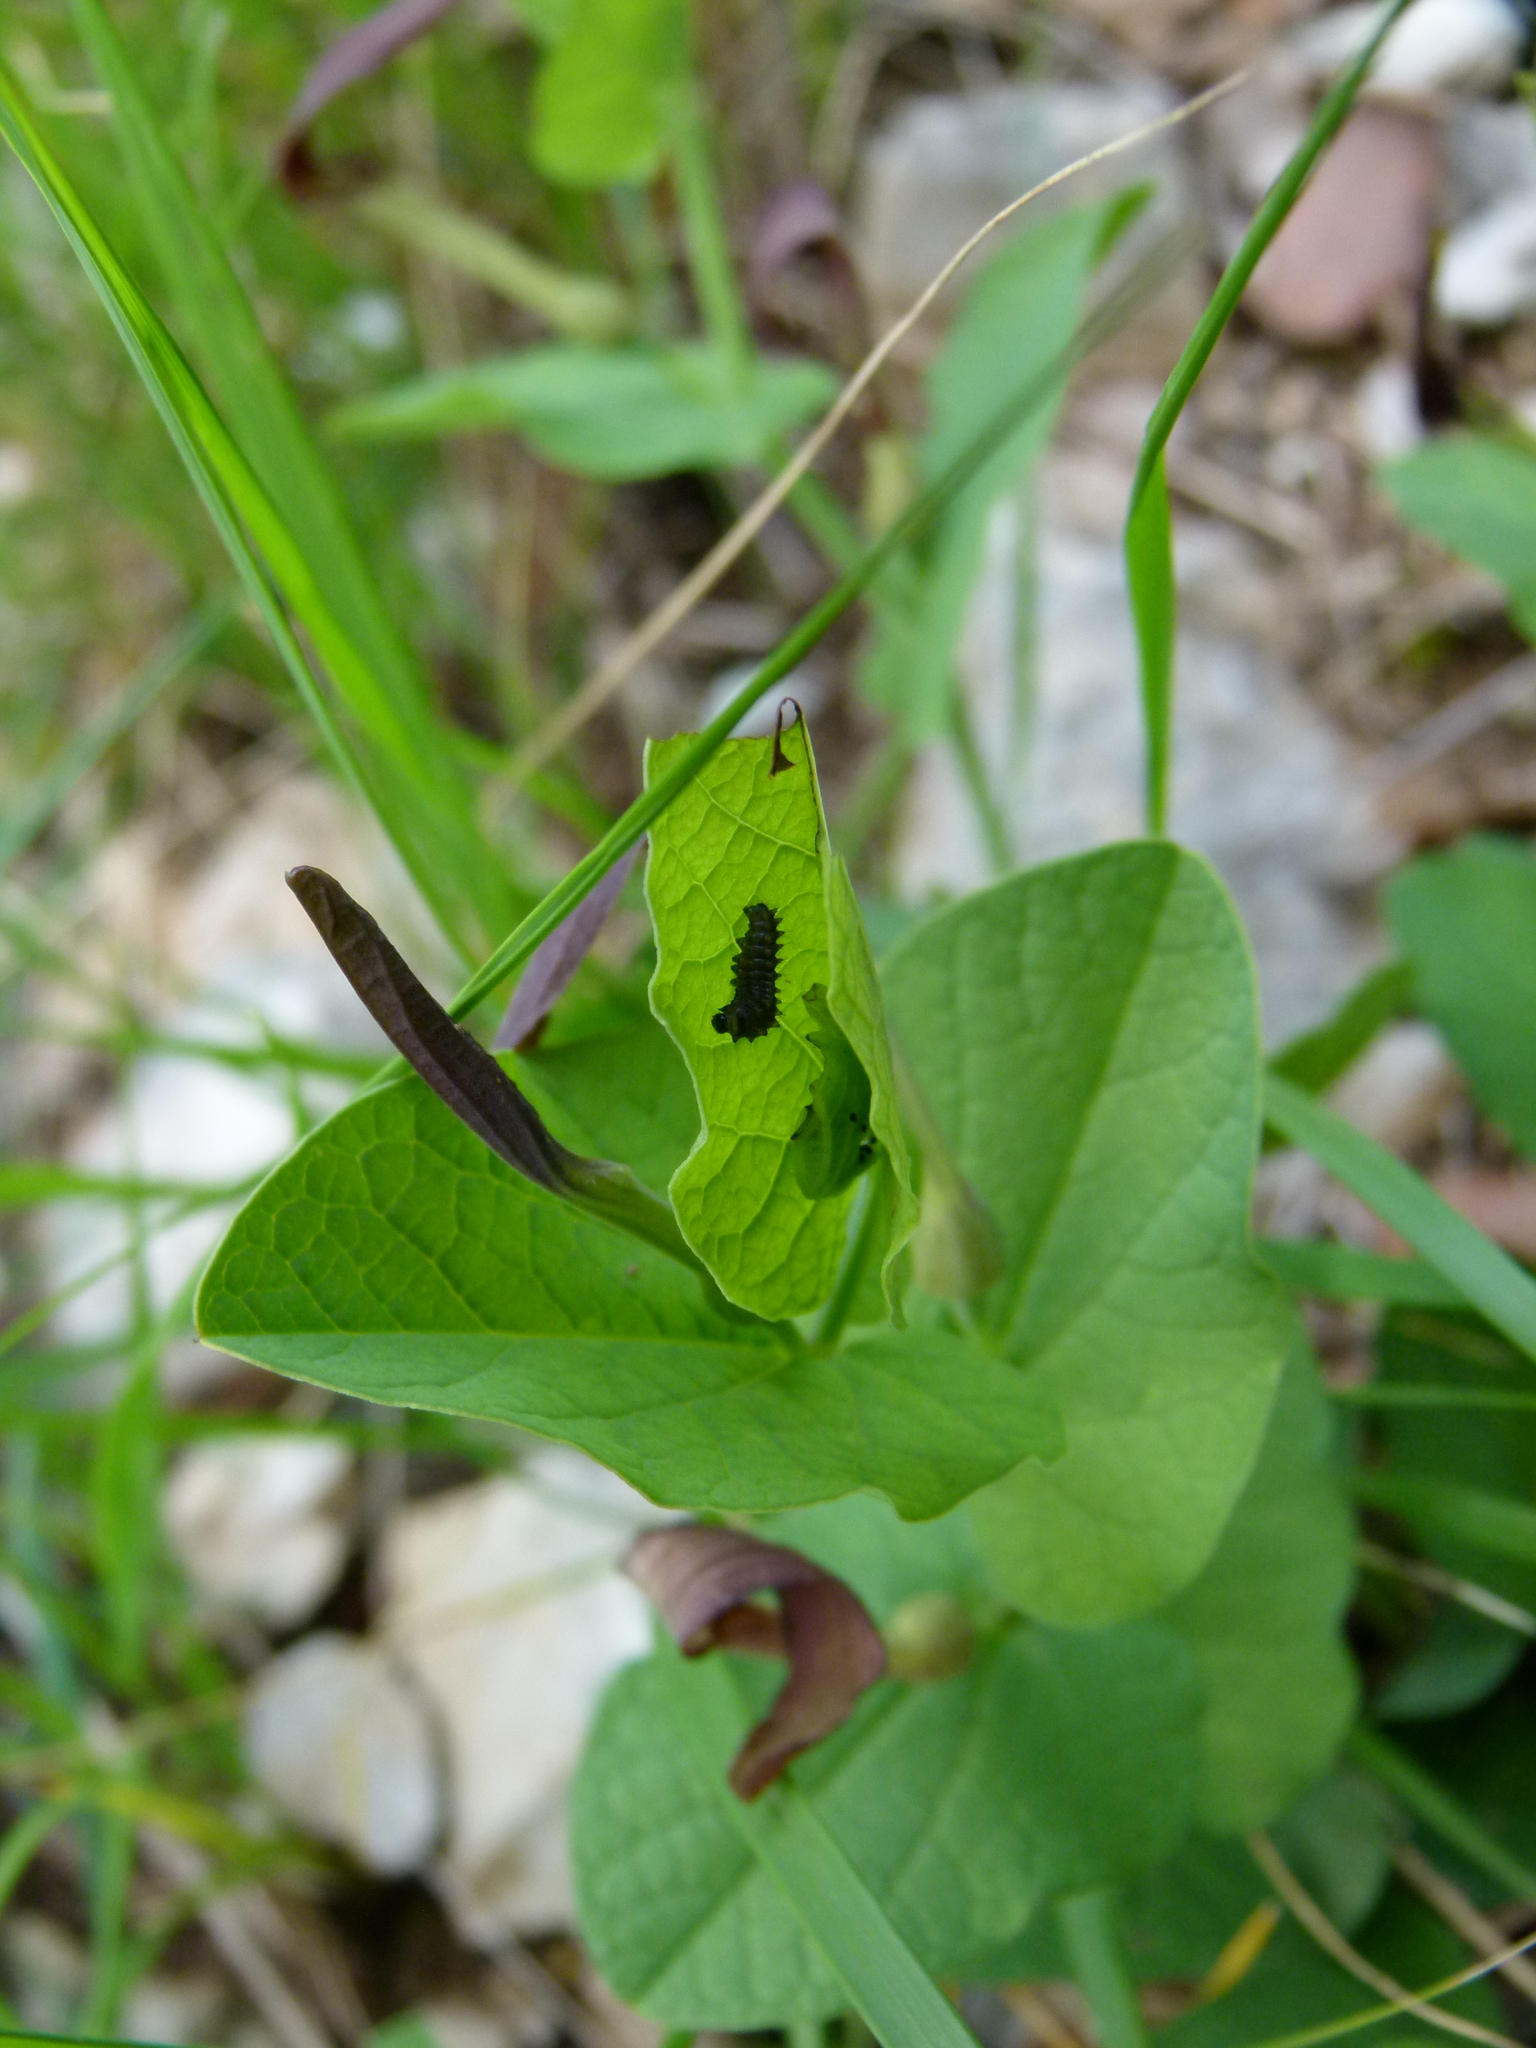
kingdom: Animalia
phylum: Arthropoda
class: Insecta
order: Lepidoptera
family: Papilionidae
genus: Zerynthia
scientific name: Zerynthia polyxena
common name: Southern festoon
